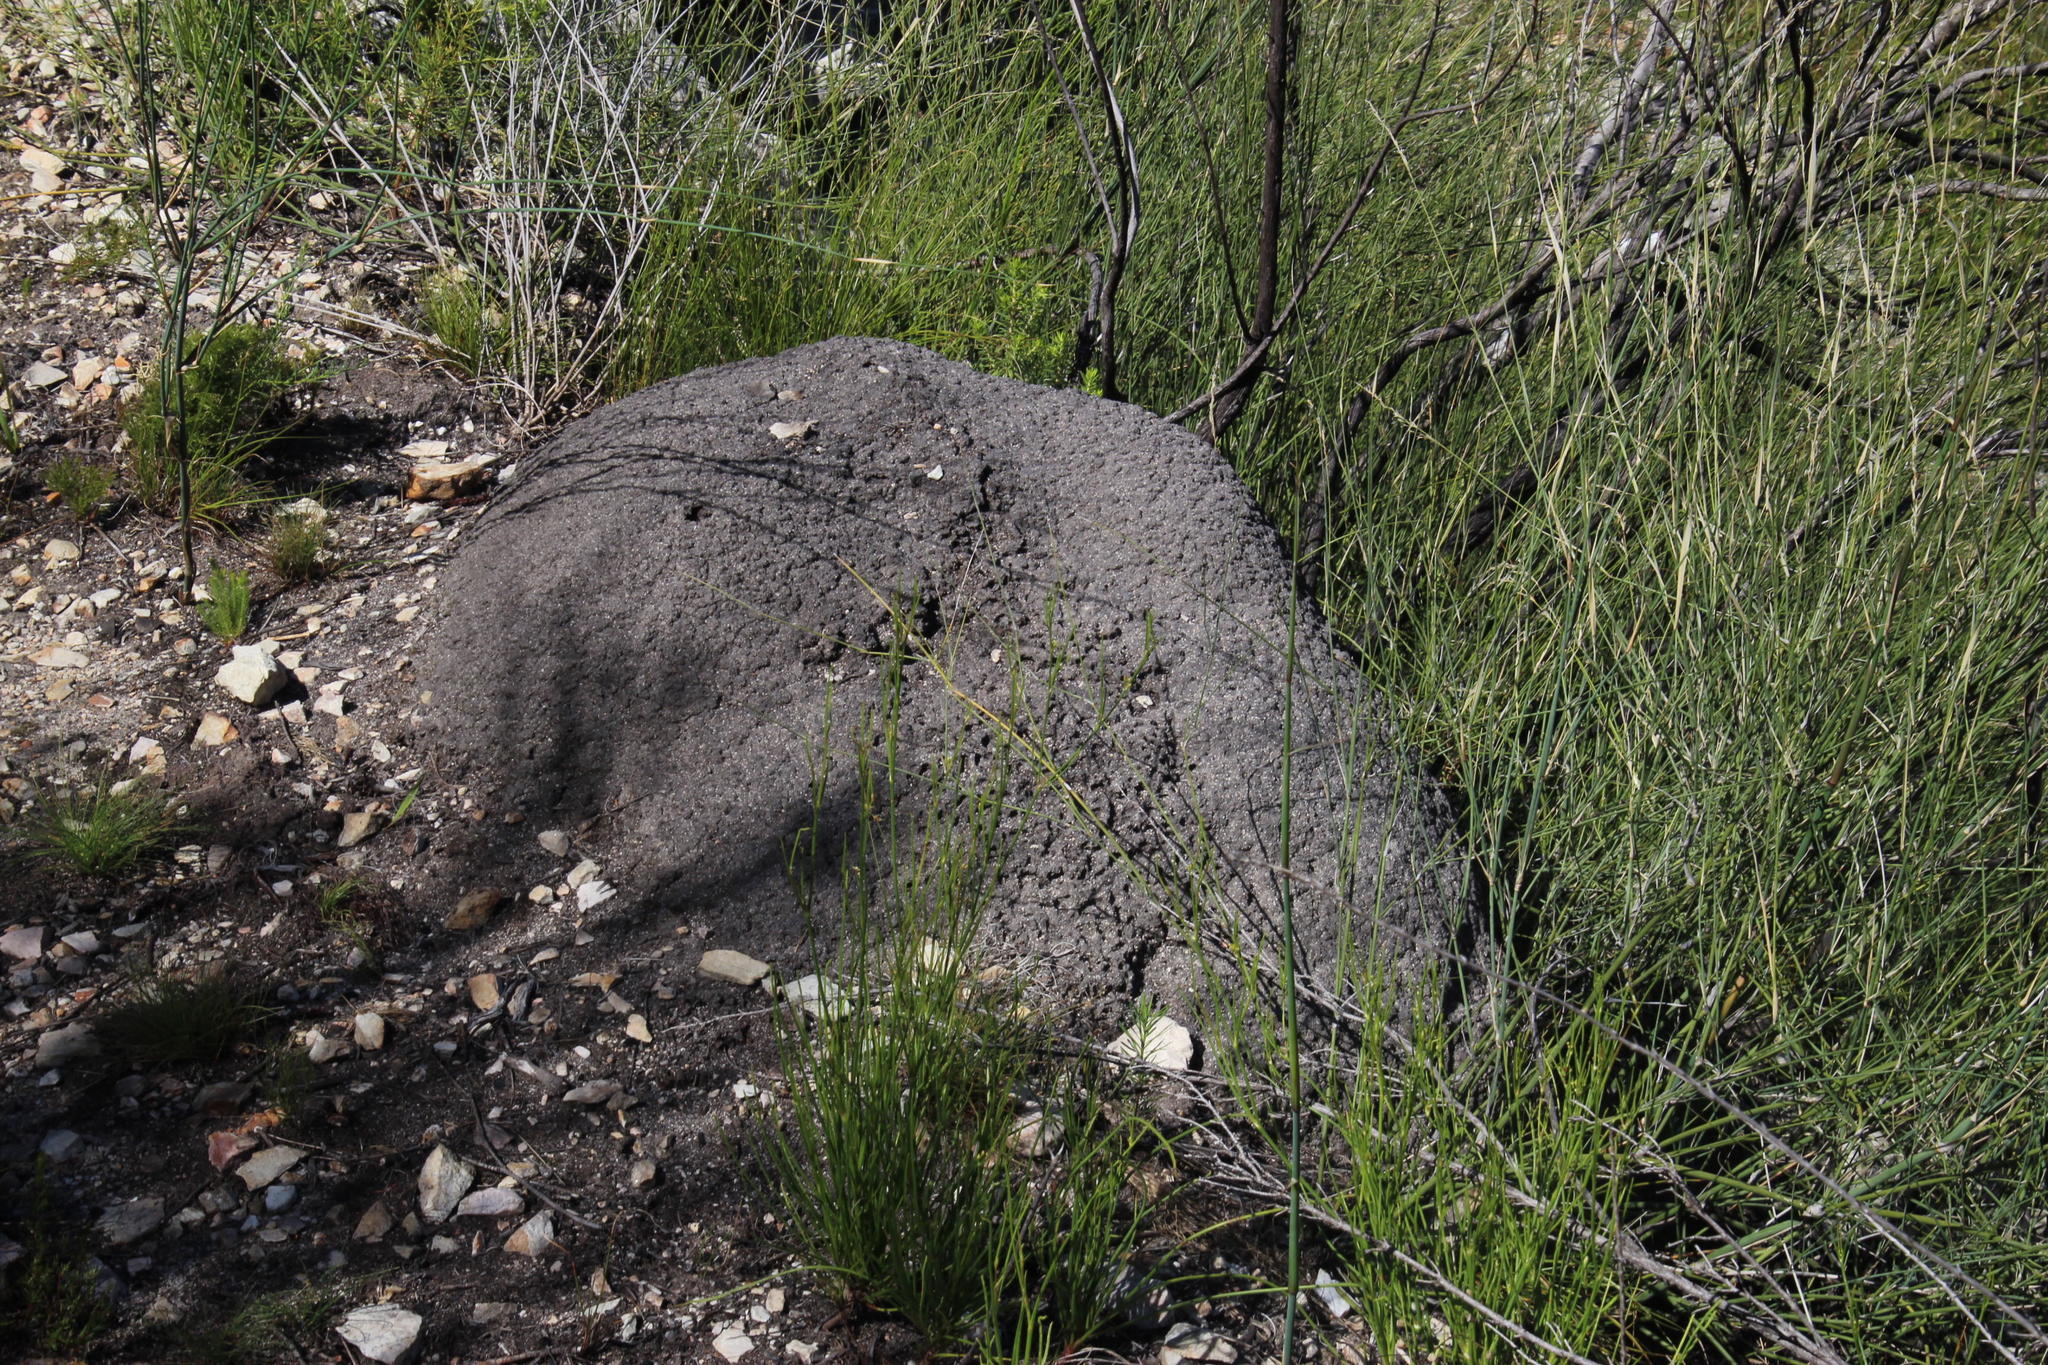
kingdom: Animalia
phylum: Arthropoda
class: Insecta
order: Blattodea
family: Termitidae
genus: Amitermes
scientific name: Amitermes hastatus
